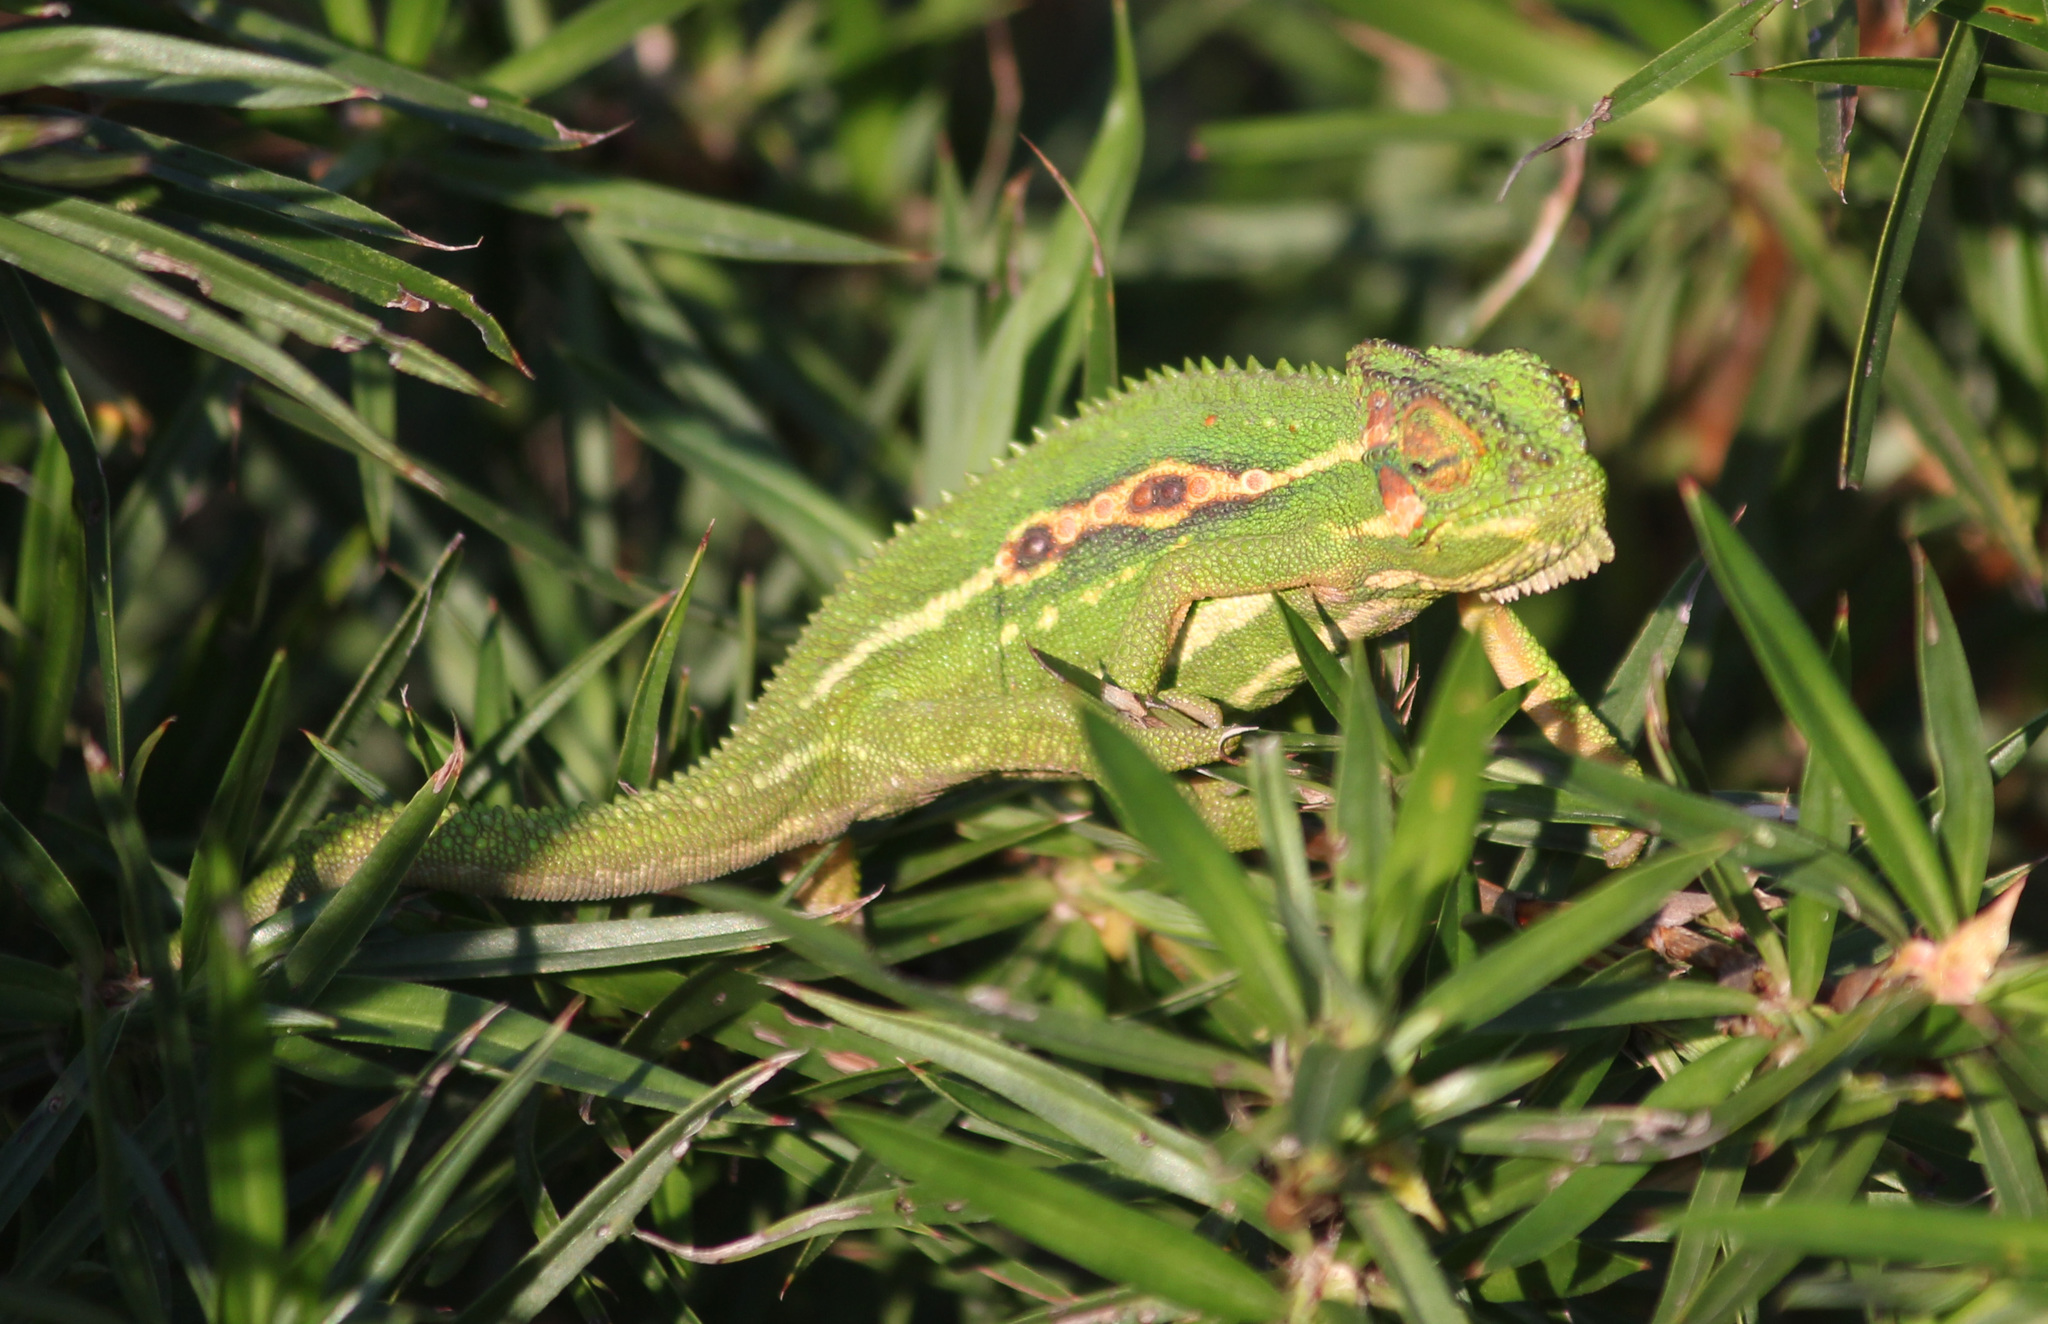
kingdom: Animalia
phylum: Chordata
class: Squamata
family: Chamaeleonidae
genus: Bradypodion
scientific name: Bradypodion pumilum
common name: Cape dwarf chameleon
